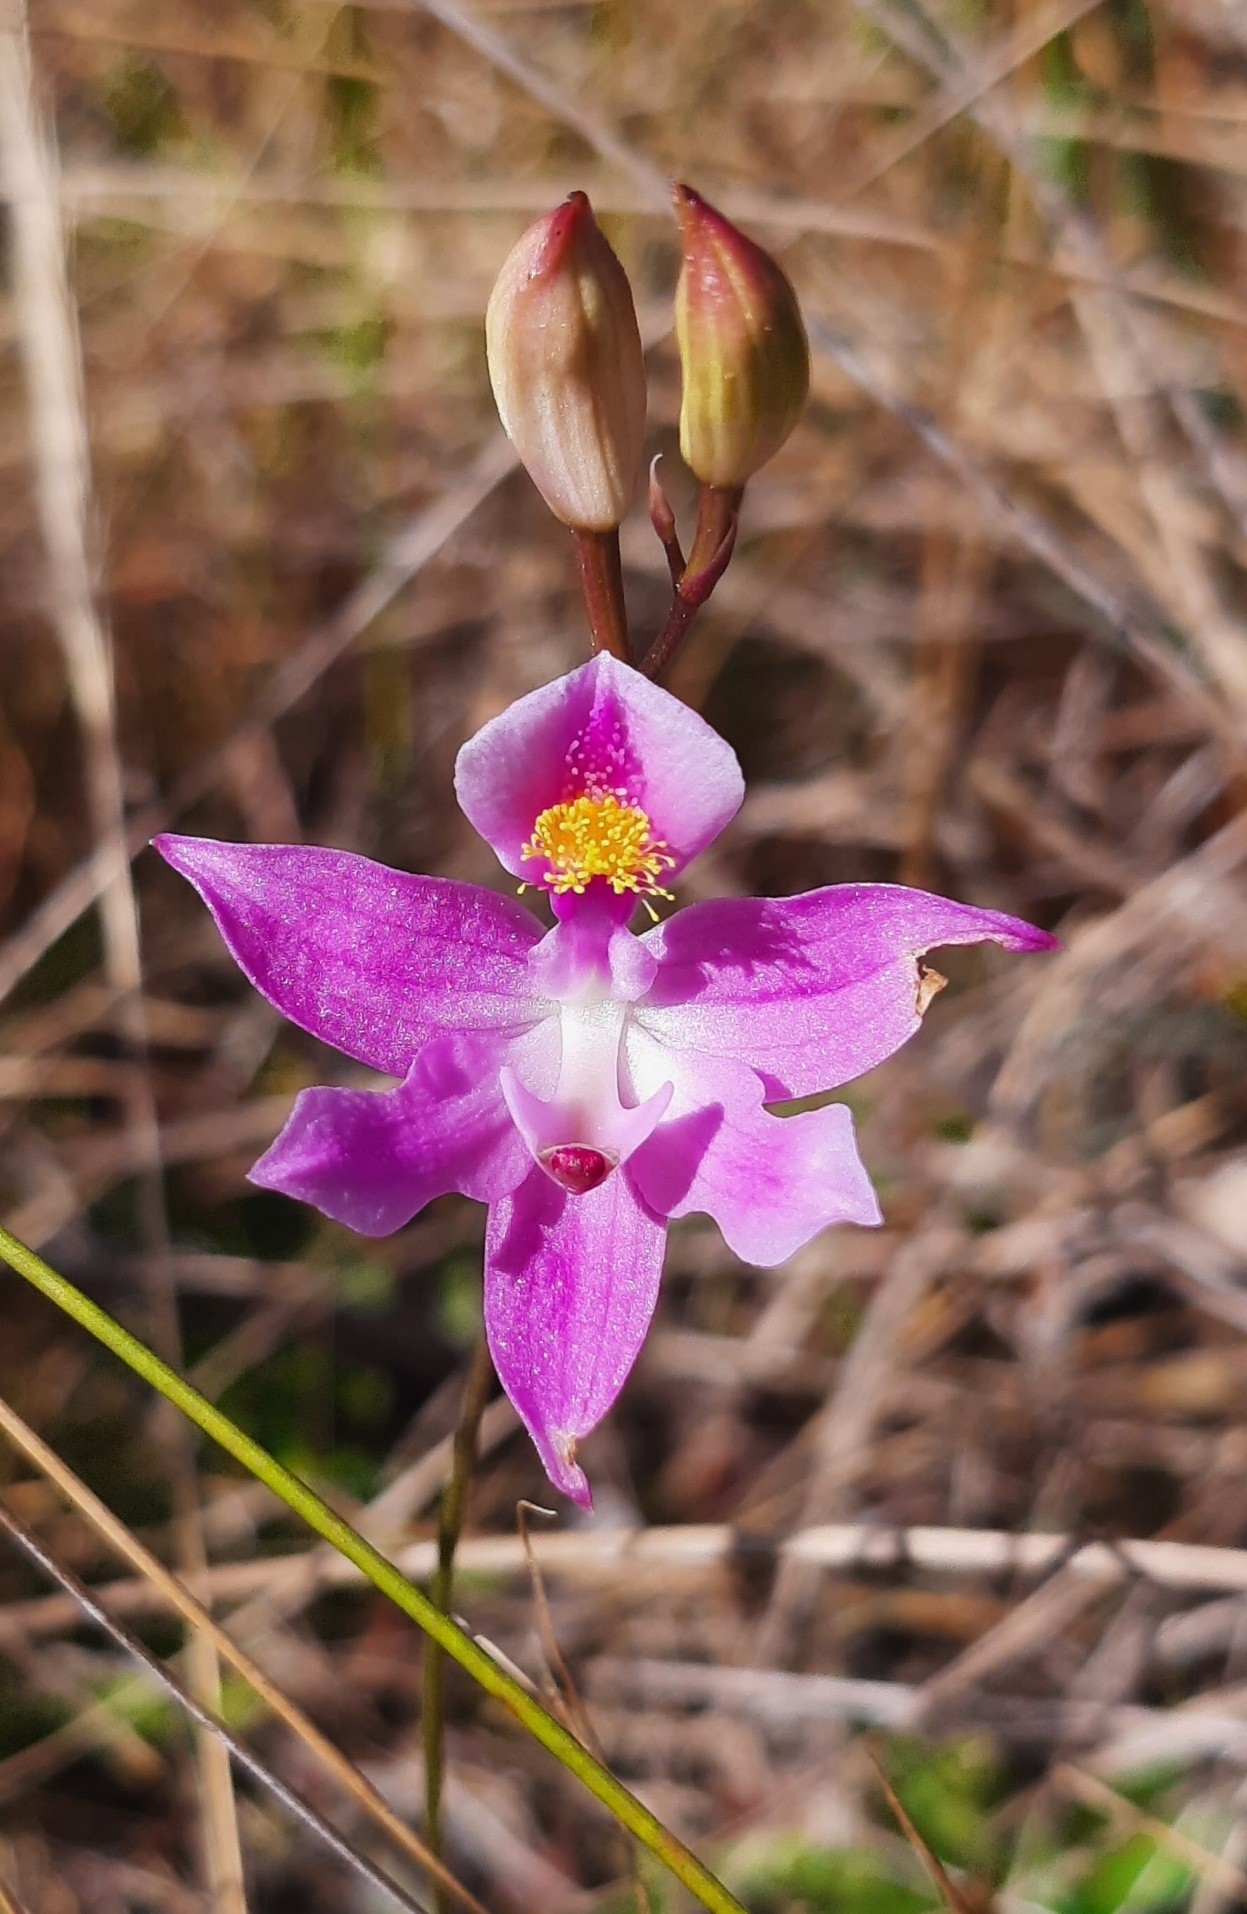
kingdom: Plantae
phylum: Tracheophyta
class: Liliopsida
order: Asparagales
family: Orchidaceae
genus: Calopogon
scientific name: Calopogon barbatus
